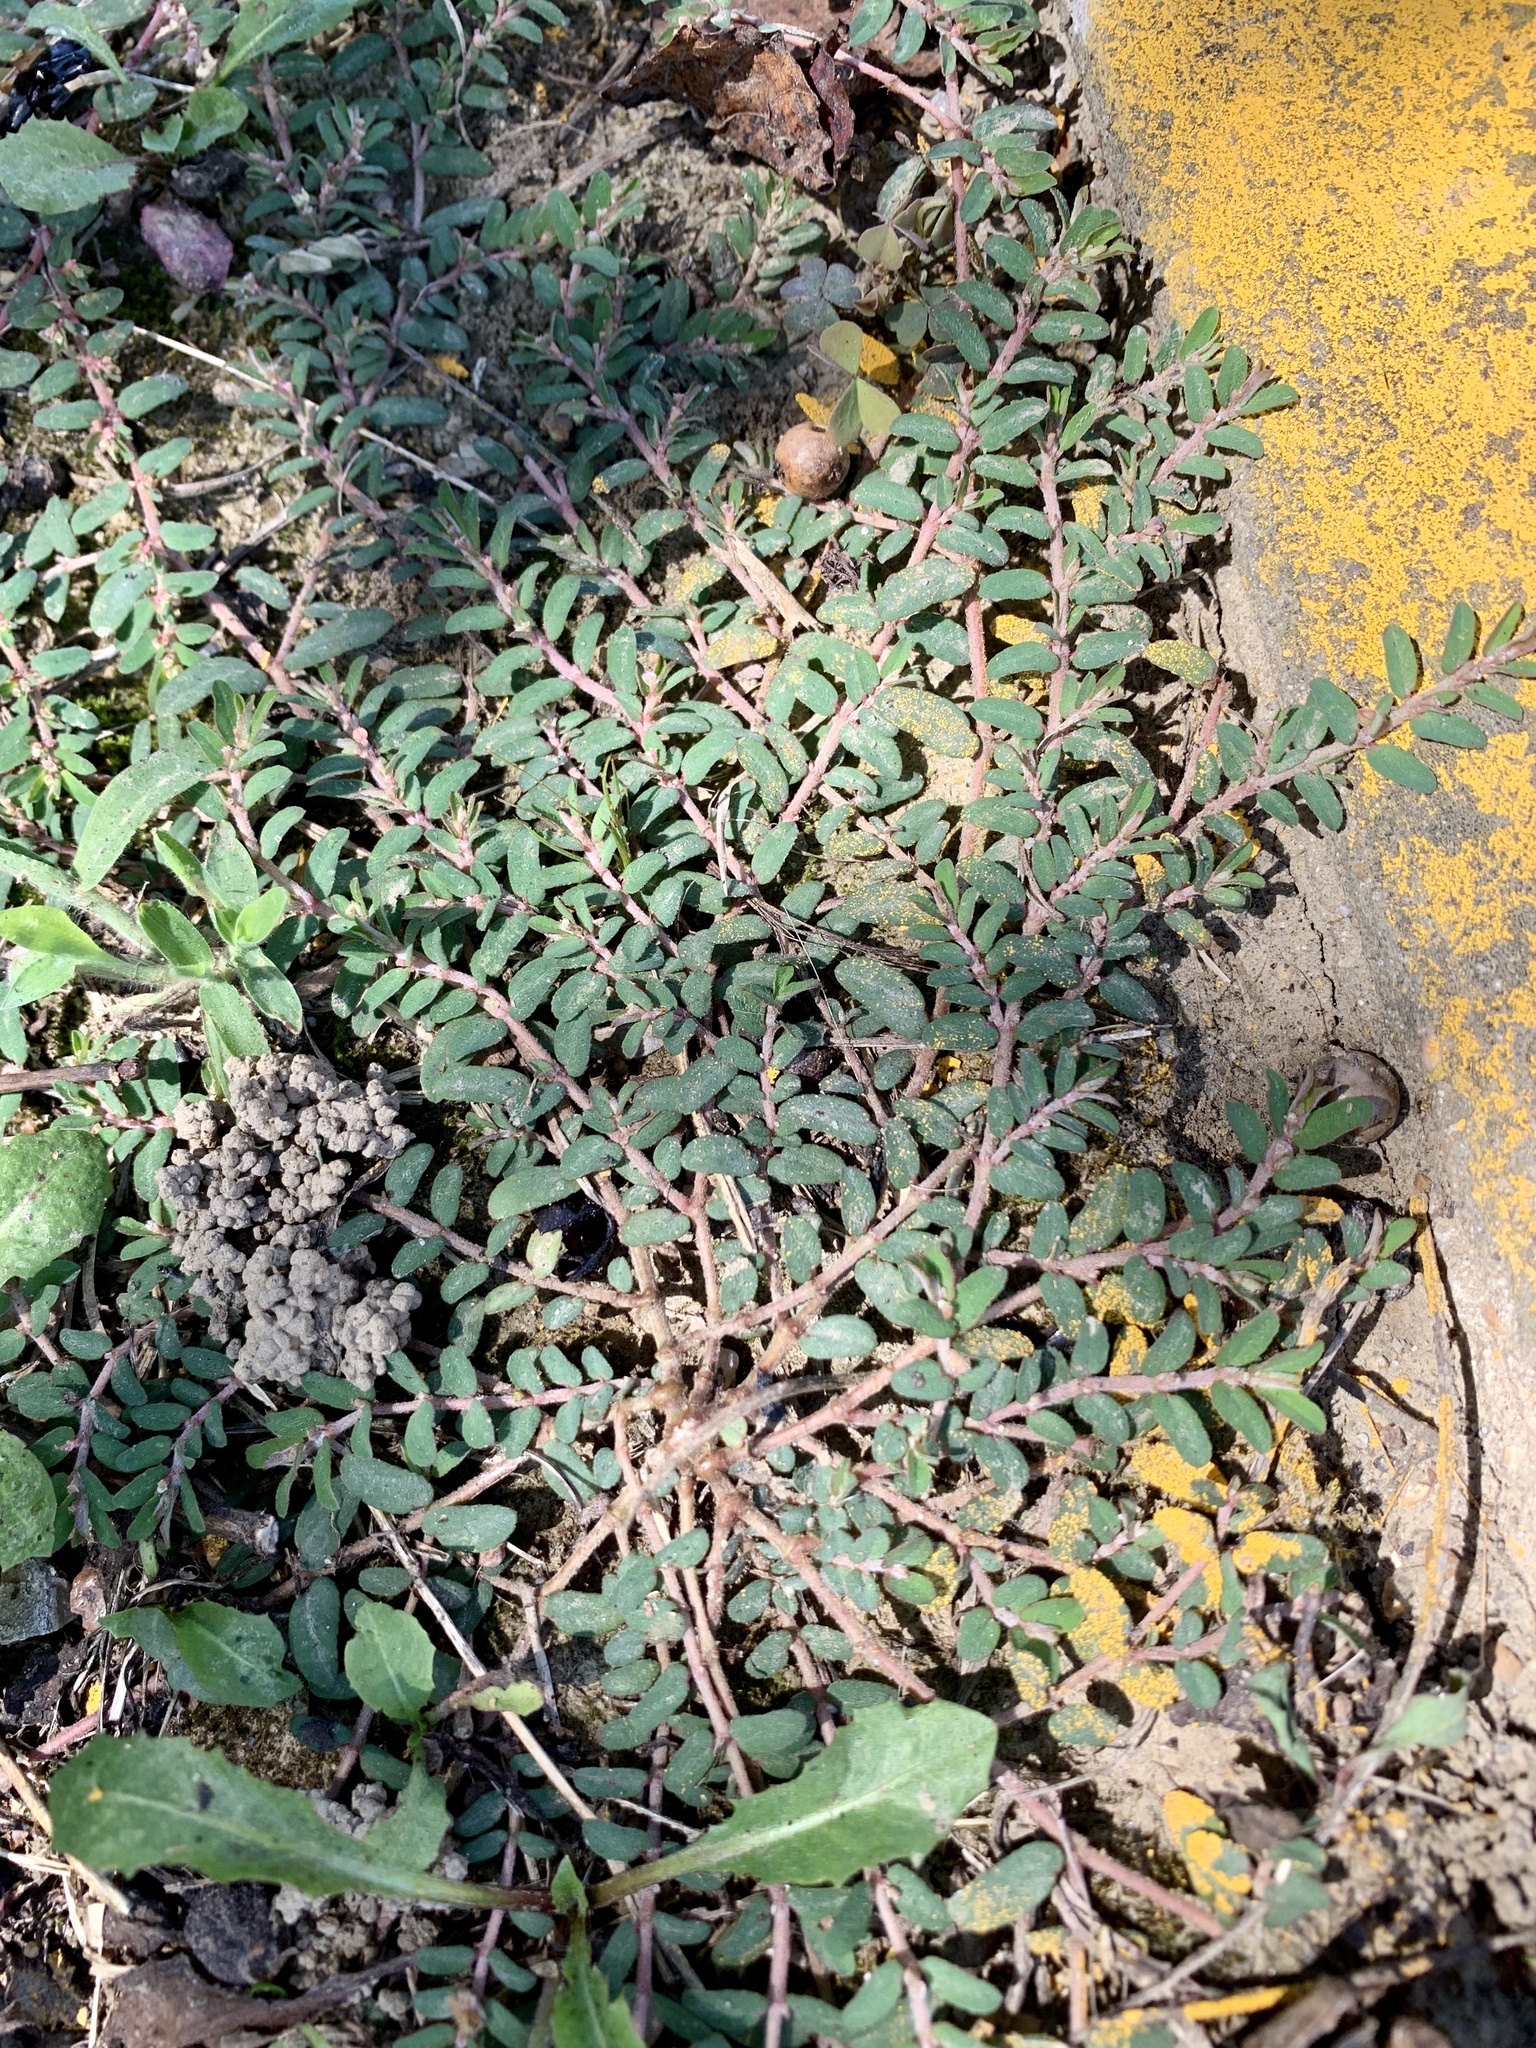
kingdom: Plantae
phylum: Tracheophyta
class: Magnoliopsida
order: Malpighiales
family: Euphorbiaceae
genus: Euphorbia
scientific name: Euphorbia maculata
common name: Spotted spurge
